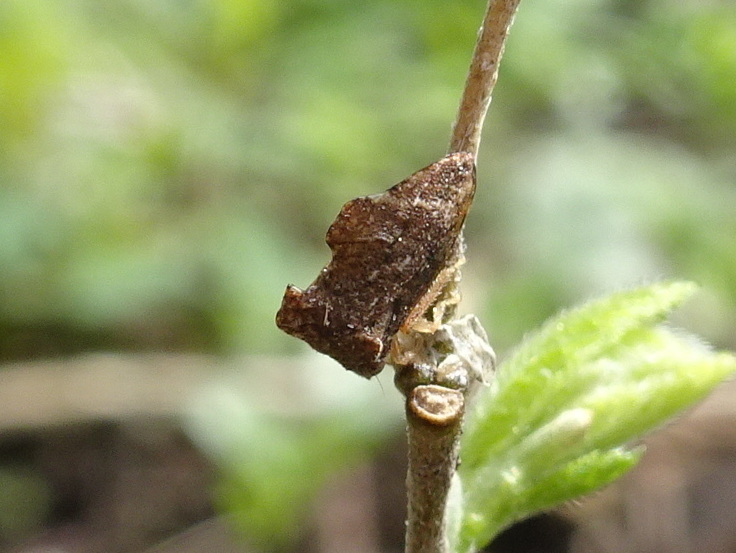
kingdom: Animalia
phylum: Arthropoda
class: Insecta
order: Hemiptera
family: Membracidae
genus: Entylia
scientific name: Entylia carinata
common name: Keeled treehopper
